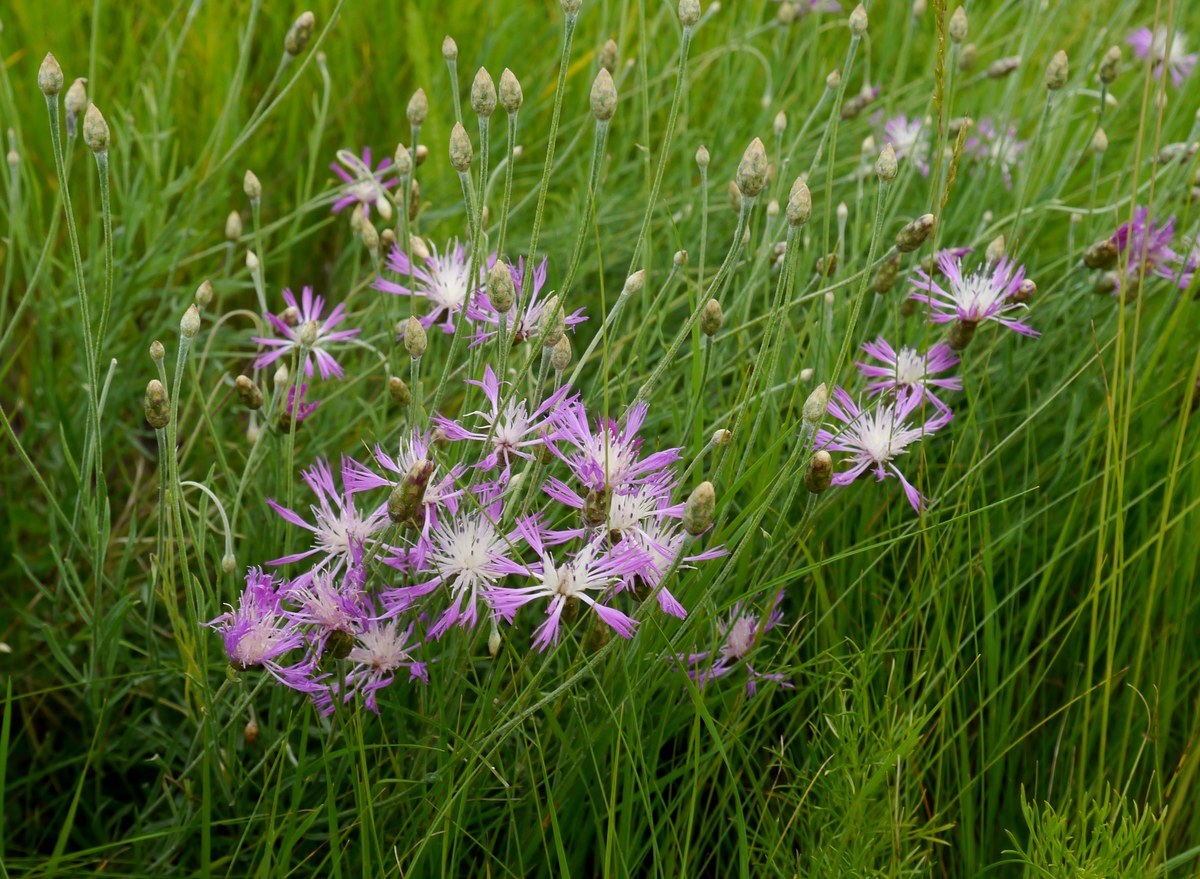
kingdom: Plantae
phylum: Tracheophyta
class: Magnoliopsida
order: Asterales
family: Asteraceae
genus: Psephellus
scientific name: Psephellus trinervius
